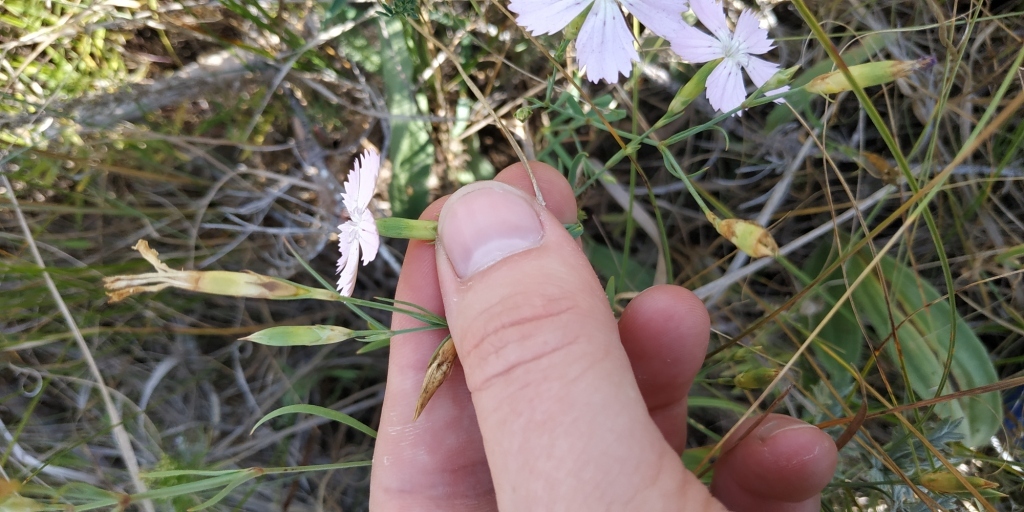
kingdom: Plantae
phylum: Tracheophyta
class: Magnoliopsida
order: Caryophyllales
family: Caryophyllaceae
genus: Dianthus
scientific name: Dianthus chinensis
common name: Rainbow pink
